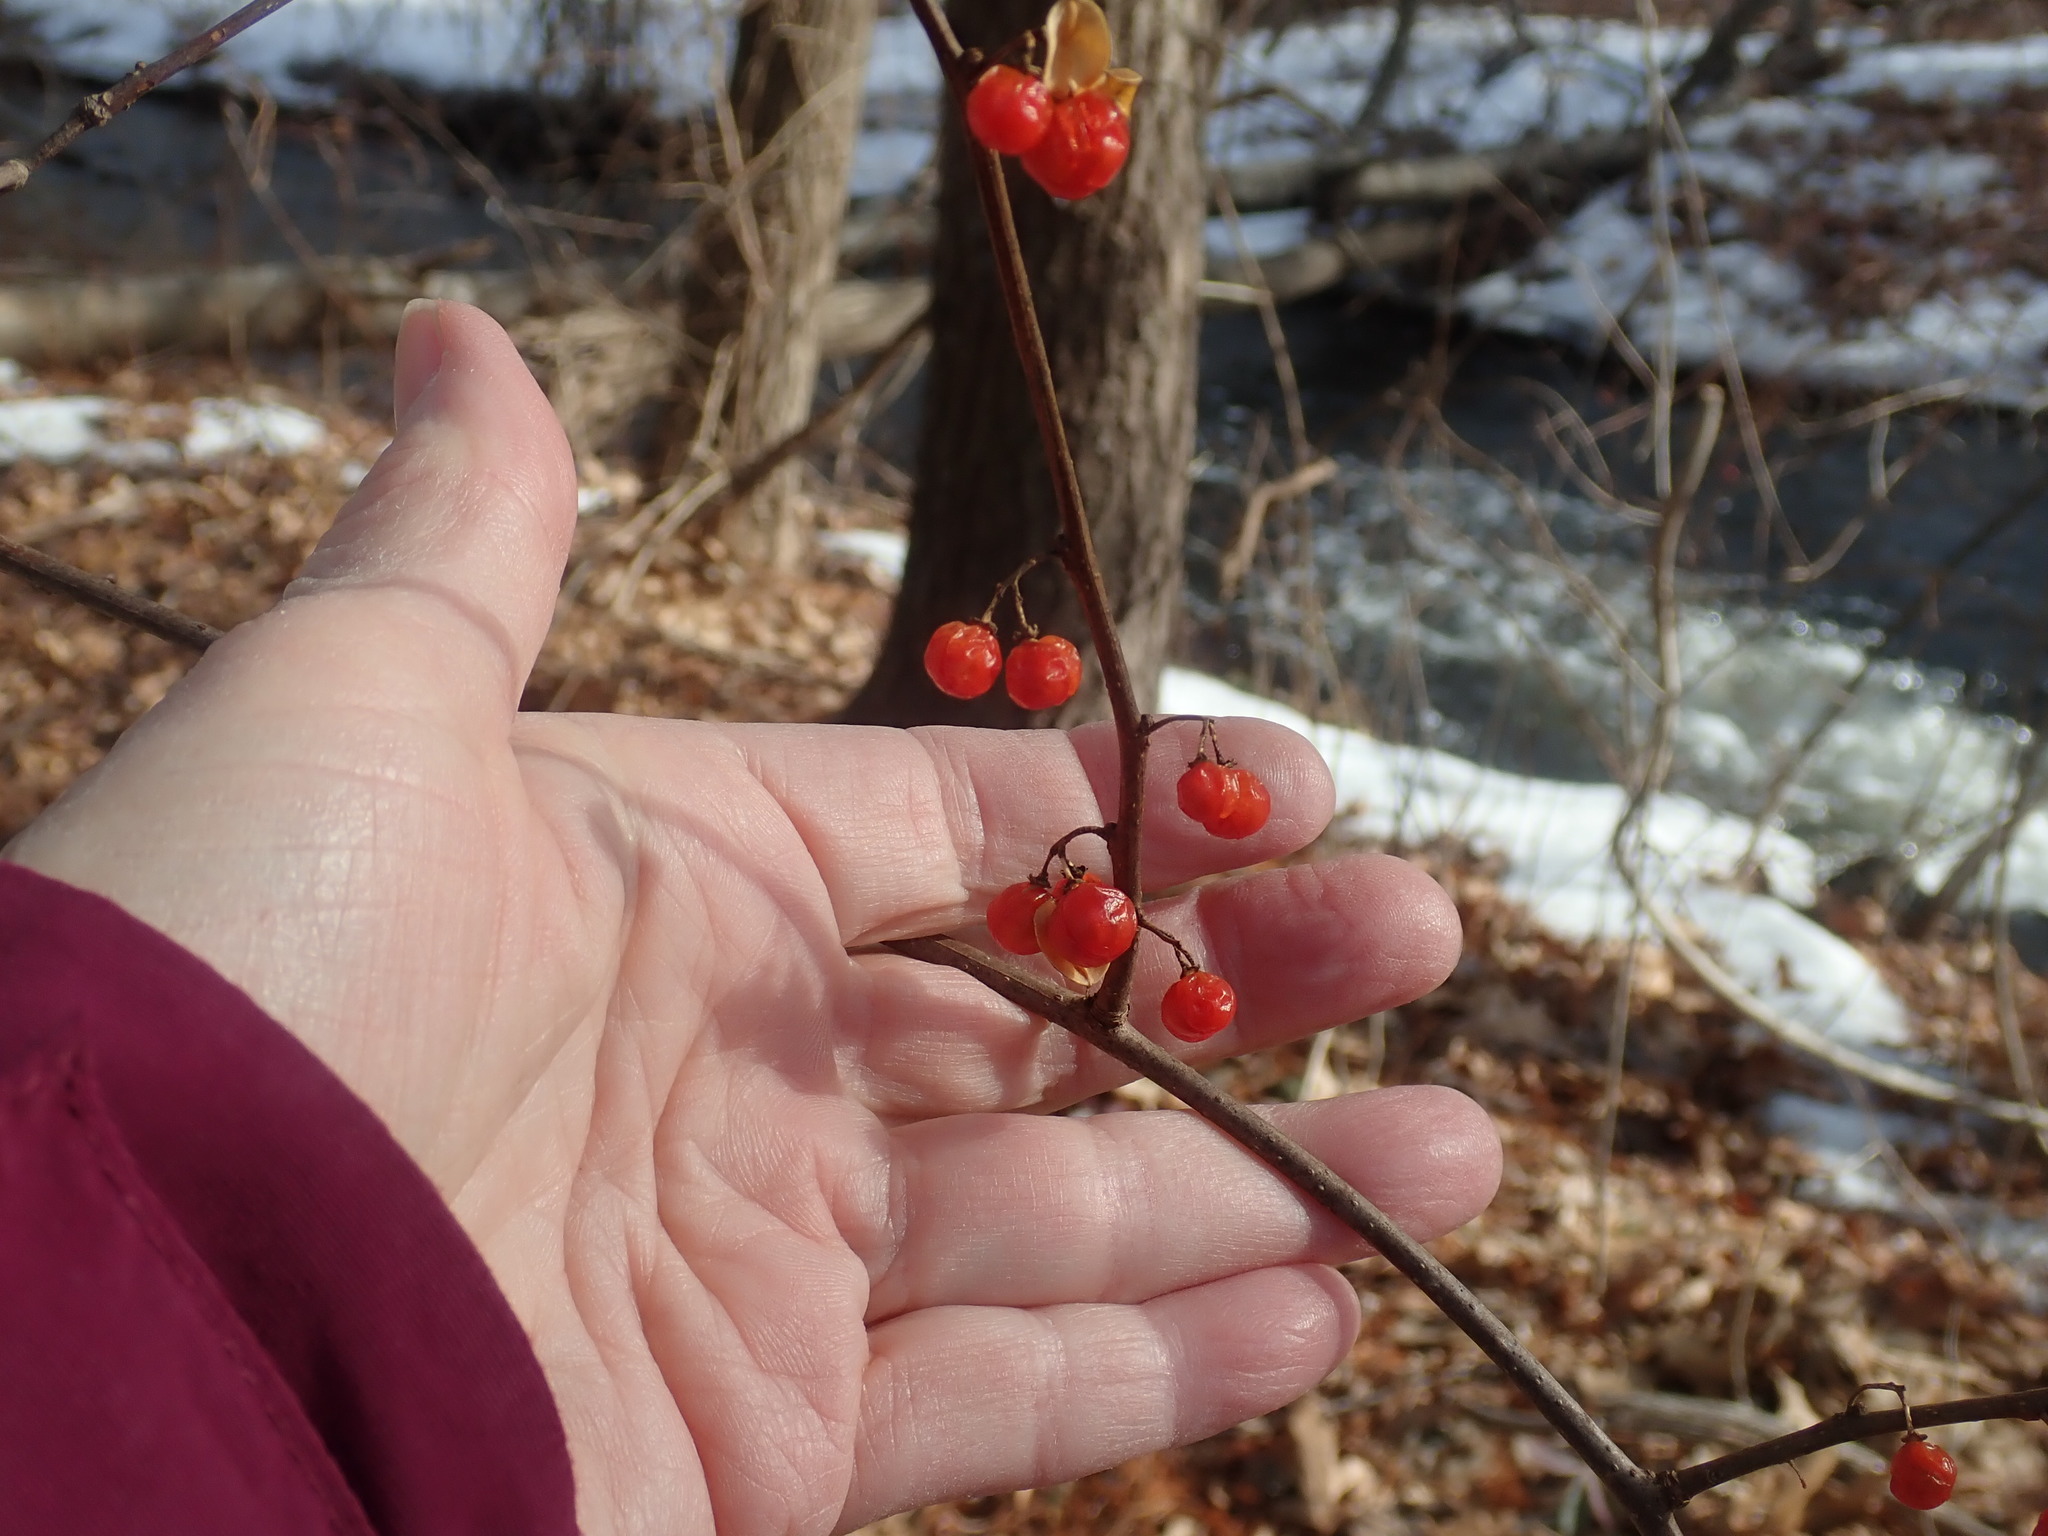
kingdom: Plantae
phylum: Tracheophyta
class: Magnoliopsida
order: Celastrales
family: Celastraceae
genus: Celastrus
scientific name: Celastrus orbiculatus
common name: Oriental bittersweet
